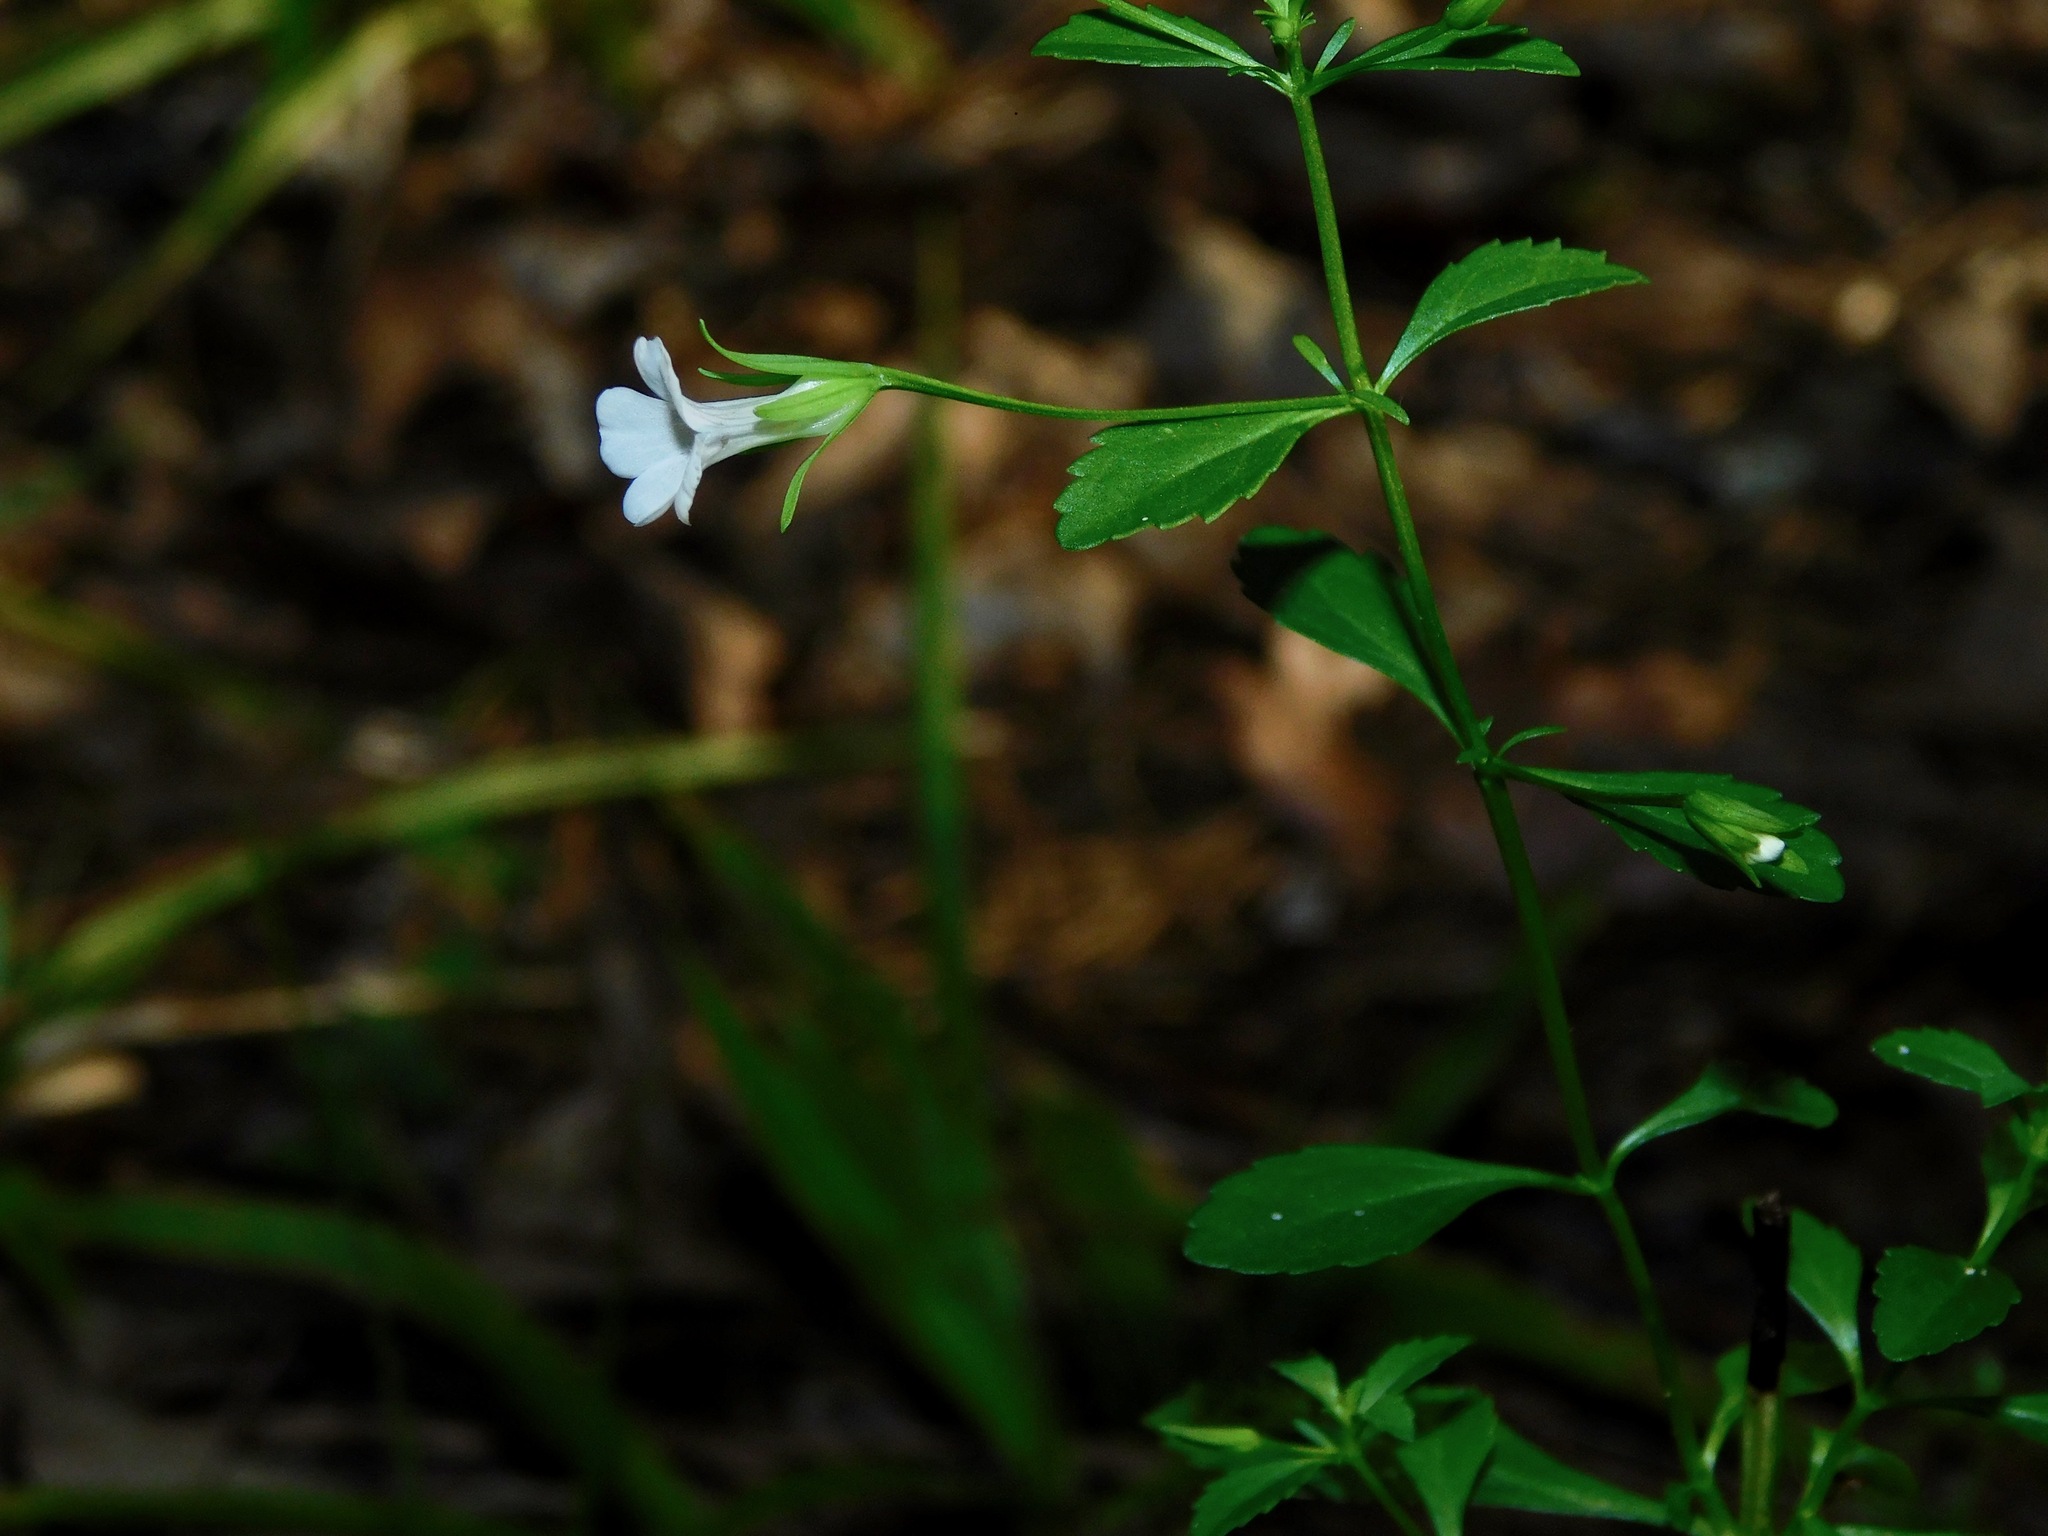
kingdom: Plantae
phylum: Tracheophyta
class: Magnoliopsida
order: Lamiales
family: Plantaginaceae
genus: Mecardonia
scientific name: Mecardonia acuminata
